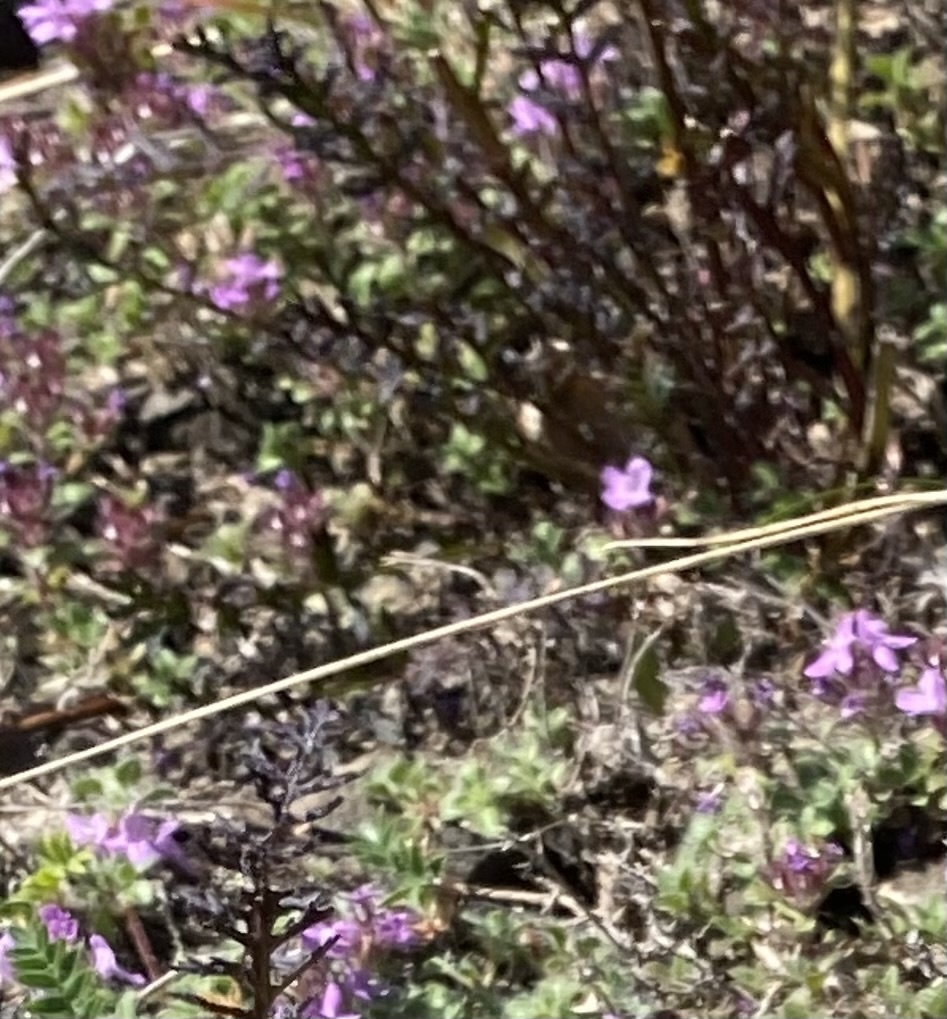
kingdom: Plantae
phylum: Tracheophyta
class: Magnoliopsida
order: Lamiales
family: Orobanchaceae
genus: Pedicularis
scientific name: Pedicularis amoena
